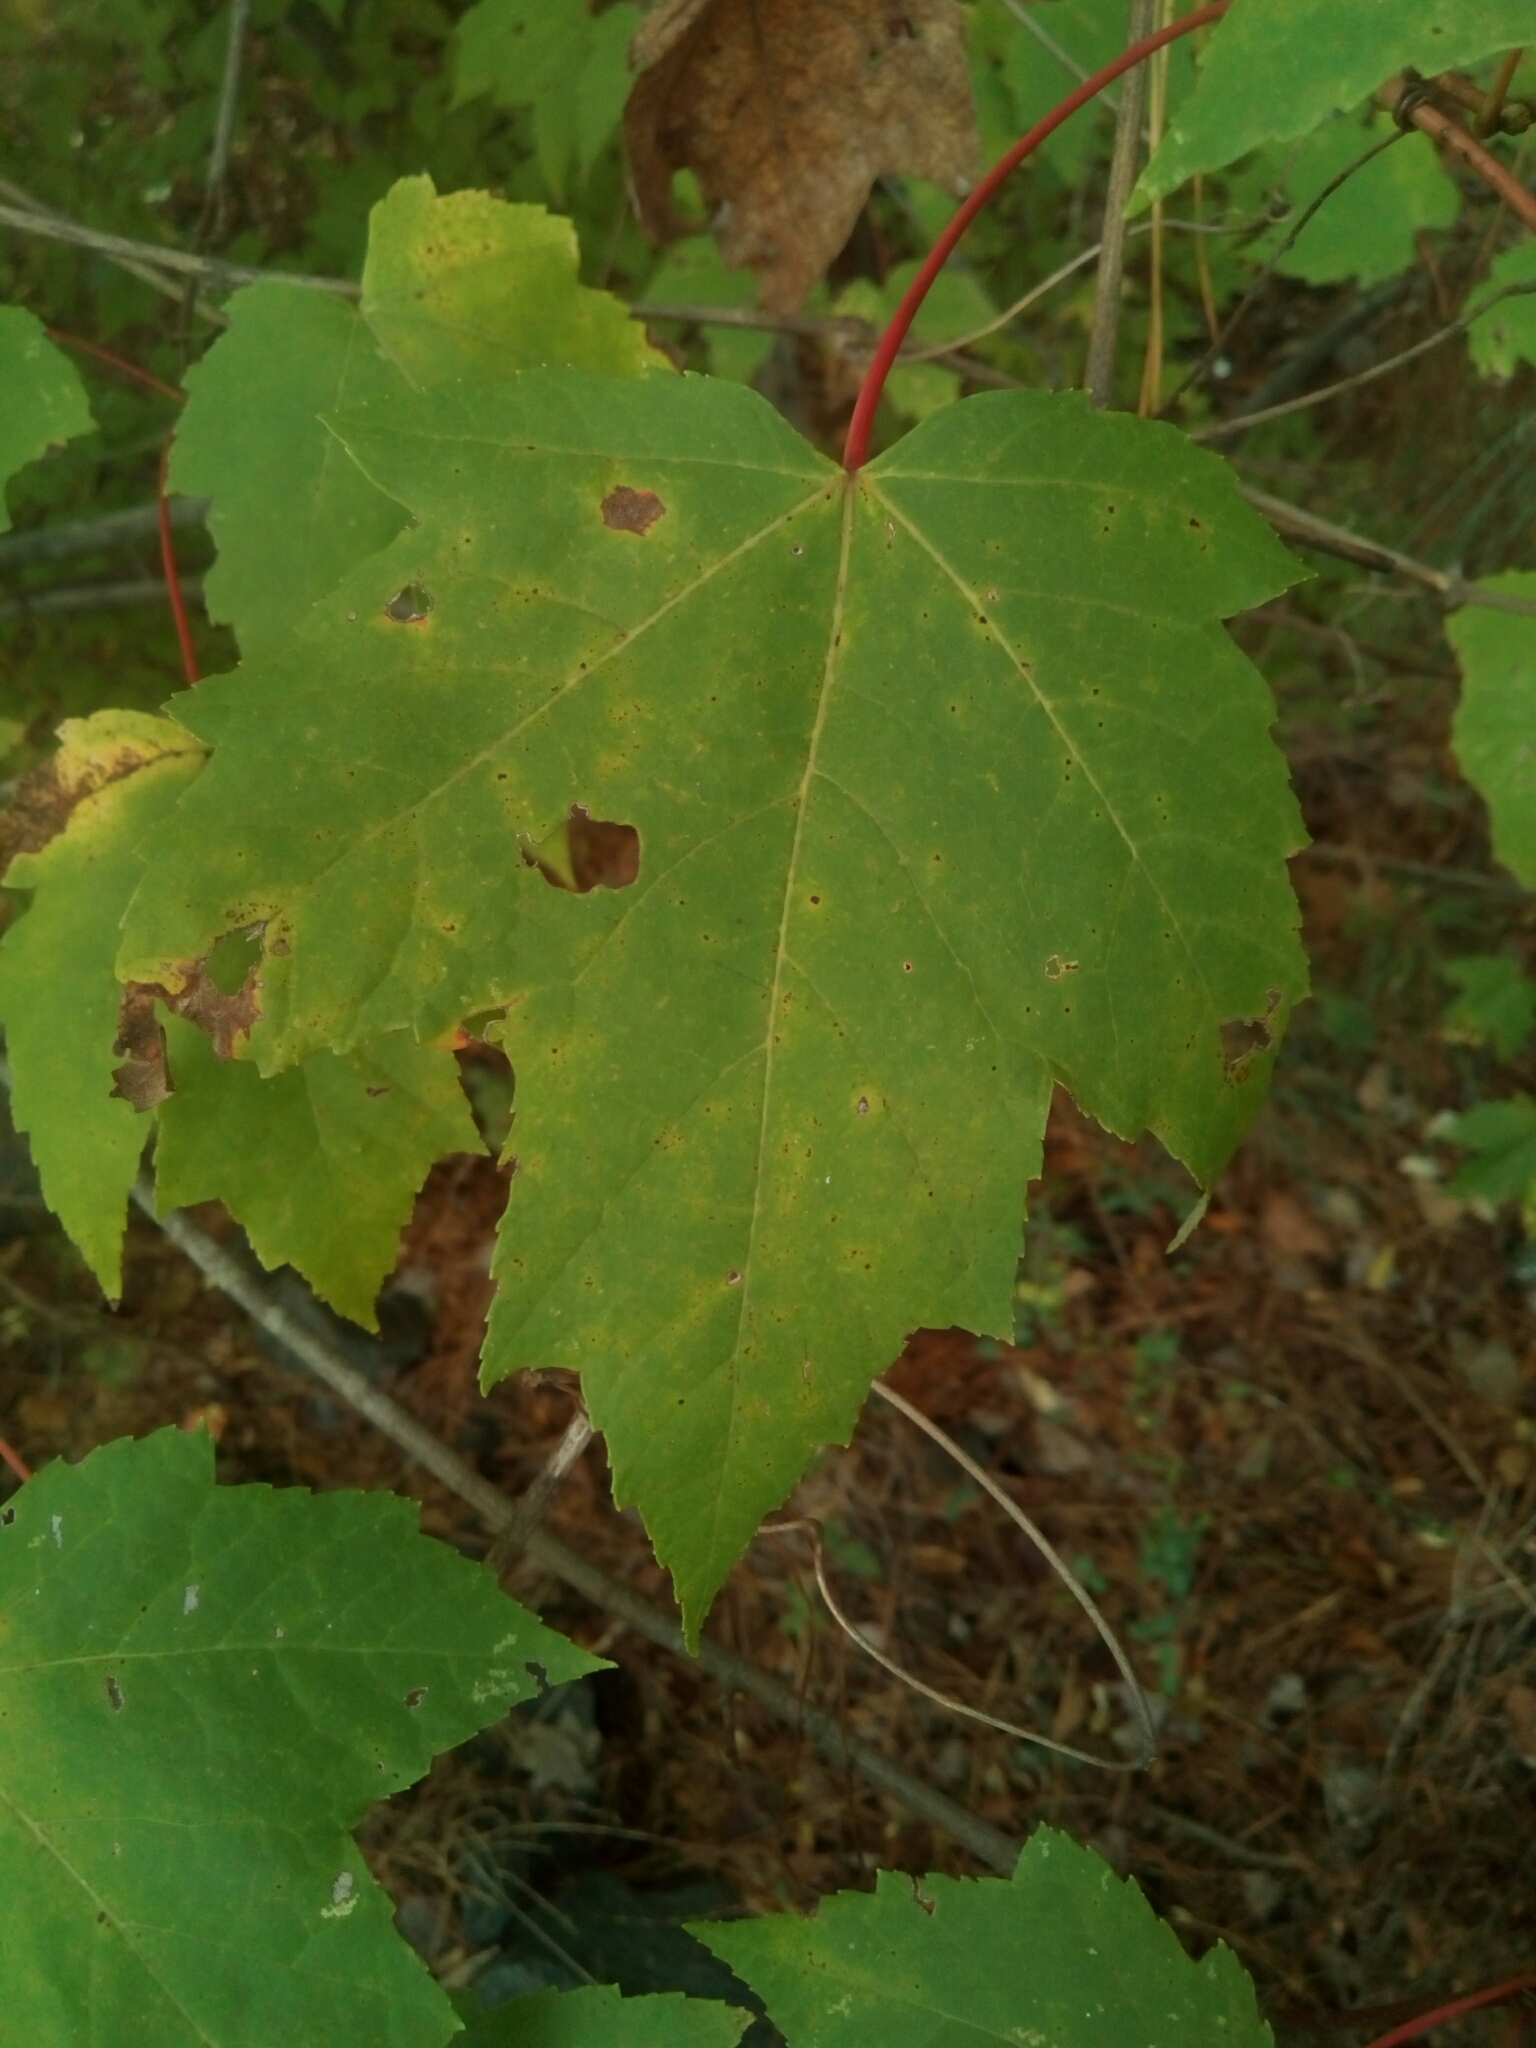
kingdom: Plantae
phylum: Tracheophyta
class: Magnoliopsida
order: Sapindales
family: Sapindaceae
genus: Acer
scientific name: Acer rubrum
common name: Red maple
